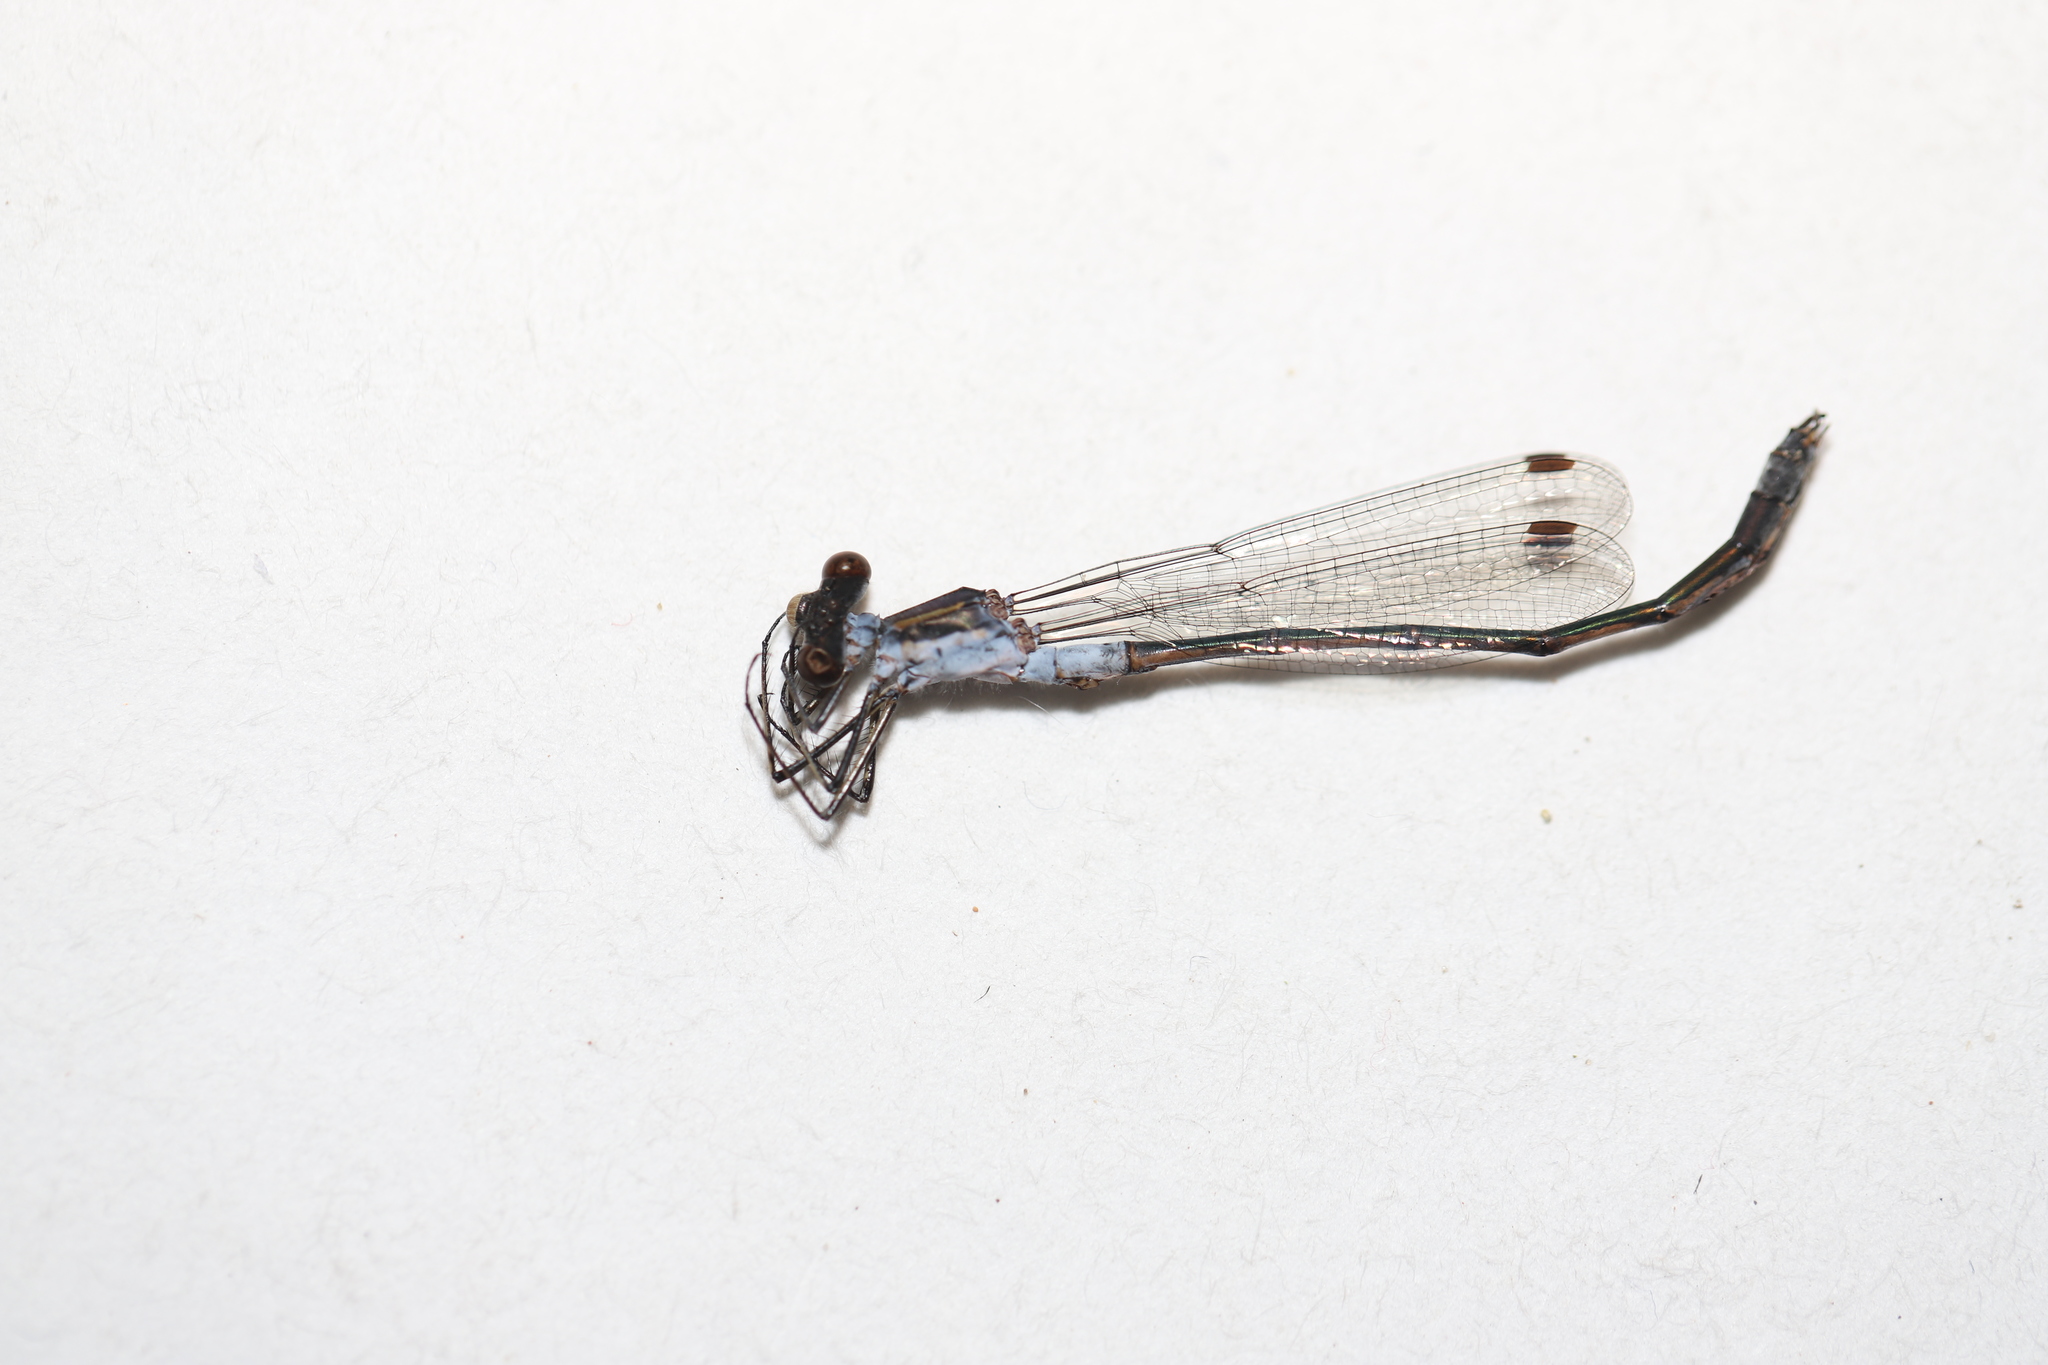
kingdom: Animalia
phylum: Arthropoda
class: Insecta
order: Odonata
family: Lestidae
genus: Lestes
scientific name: Lestes disjunctus
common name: Northern spreadwing
